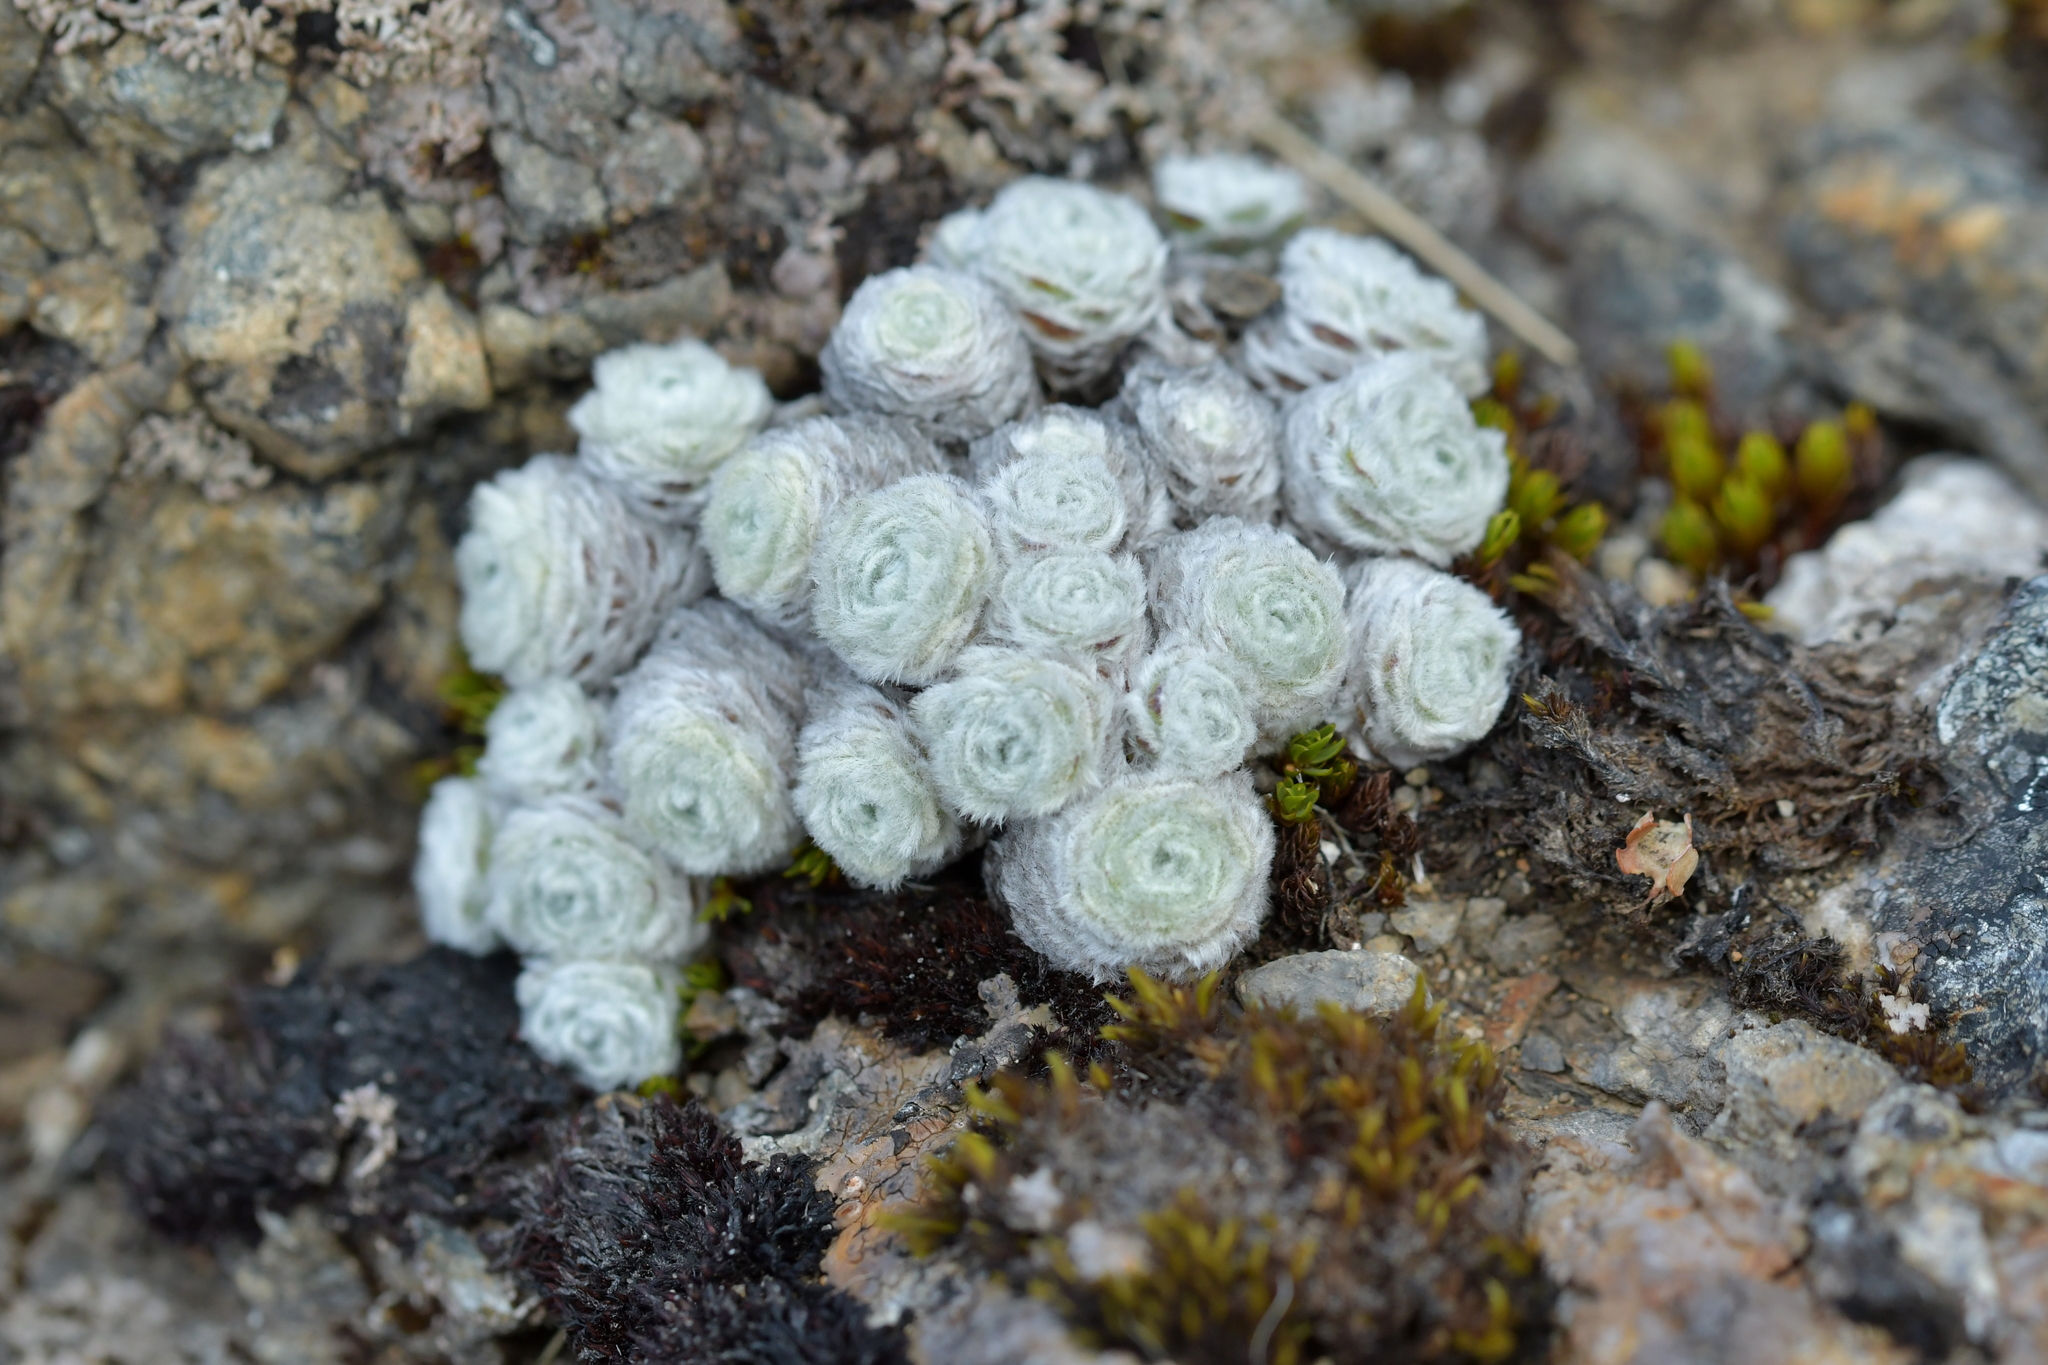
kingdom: Plantae
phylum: Tracheophyta
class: Magnoliopsida
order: Asterales
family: Asteraceae
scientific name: Asteraceae
